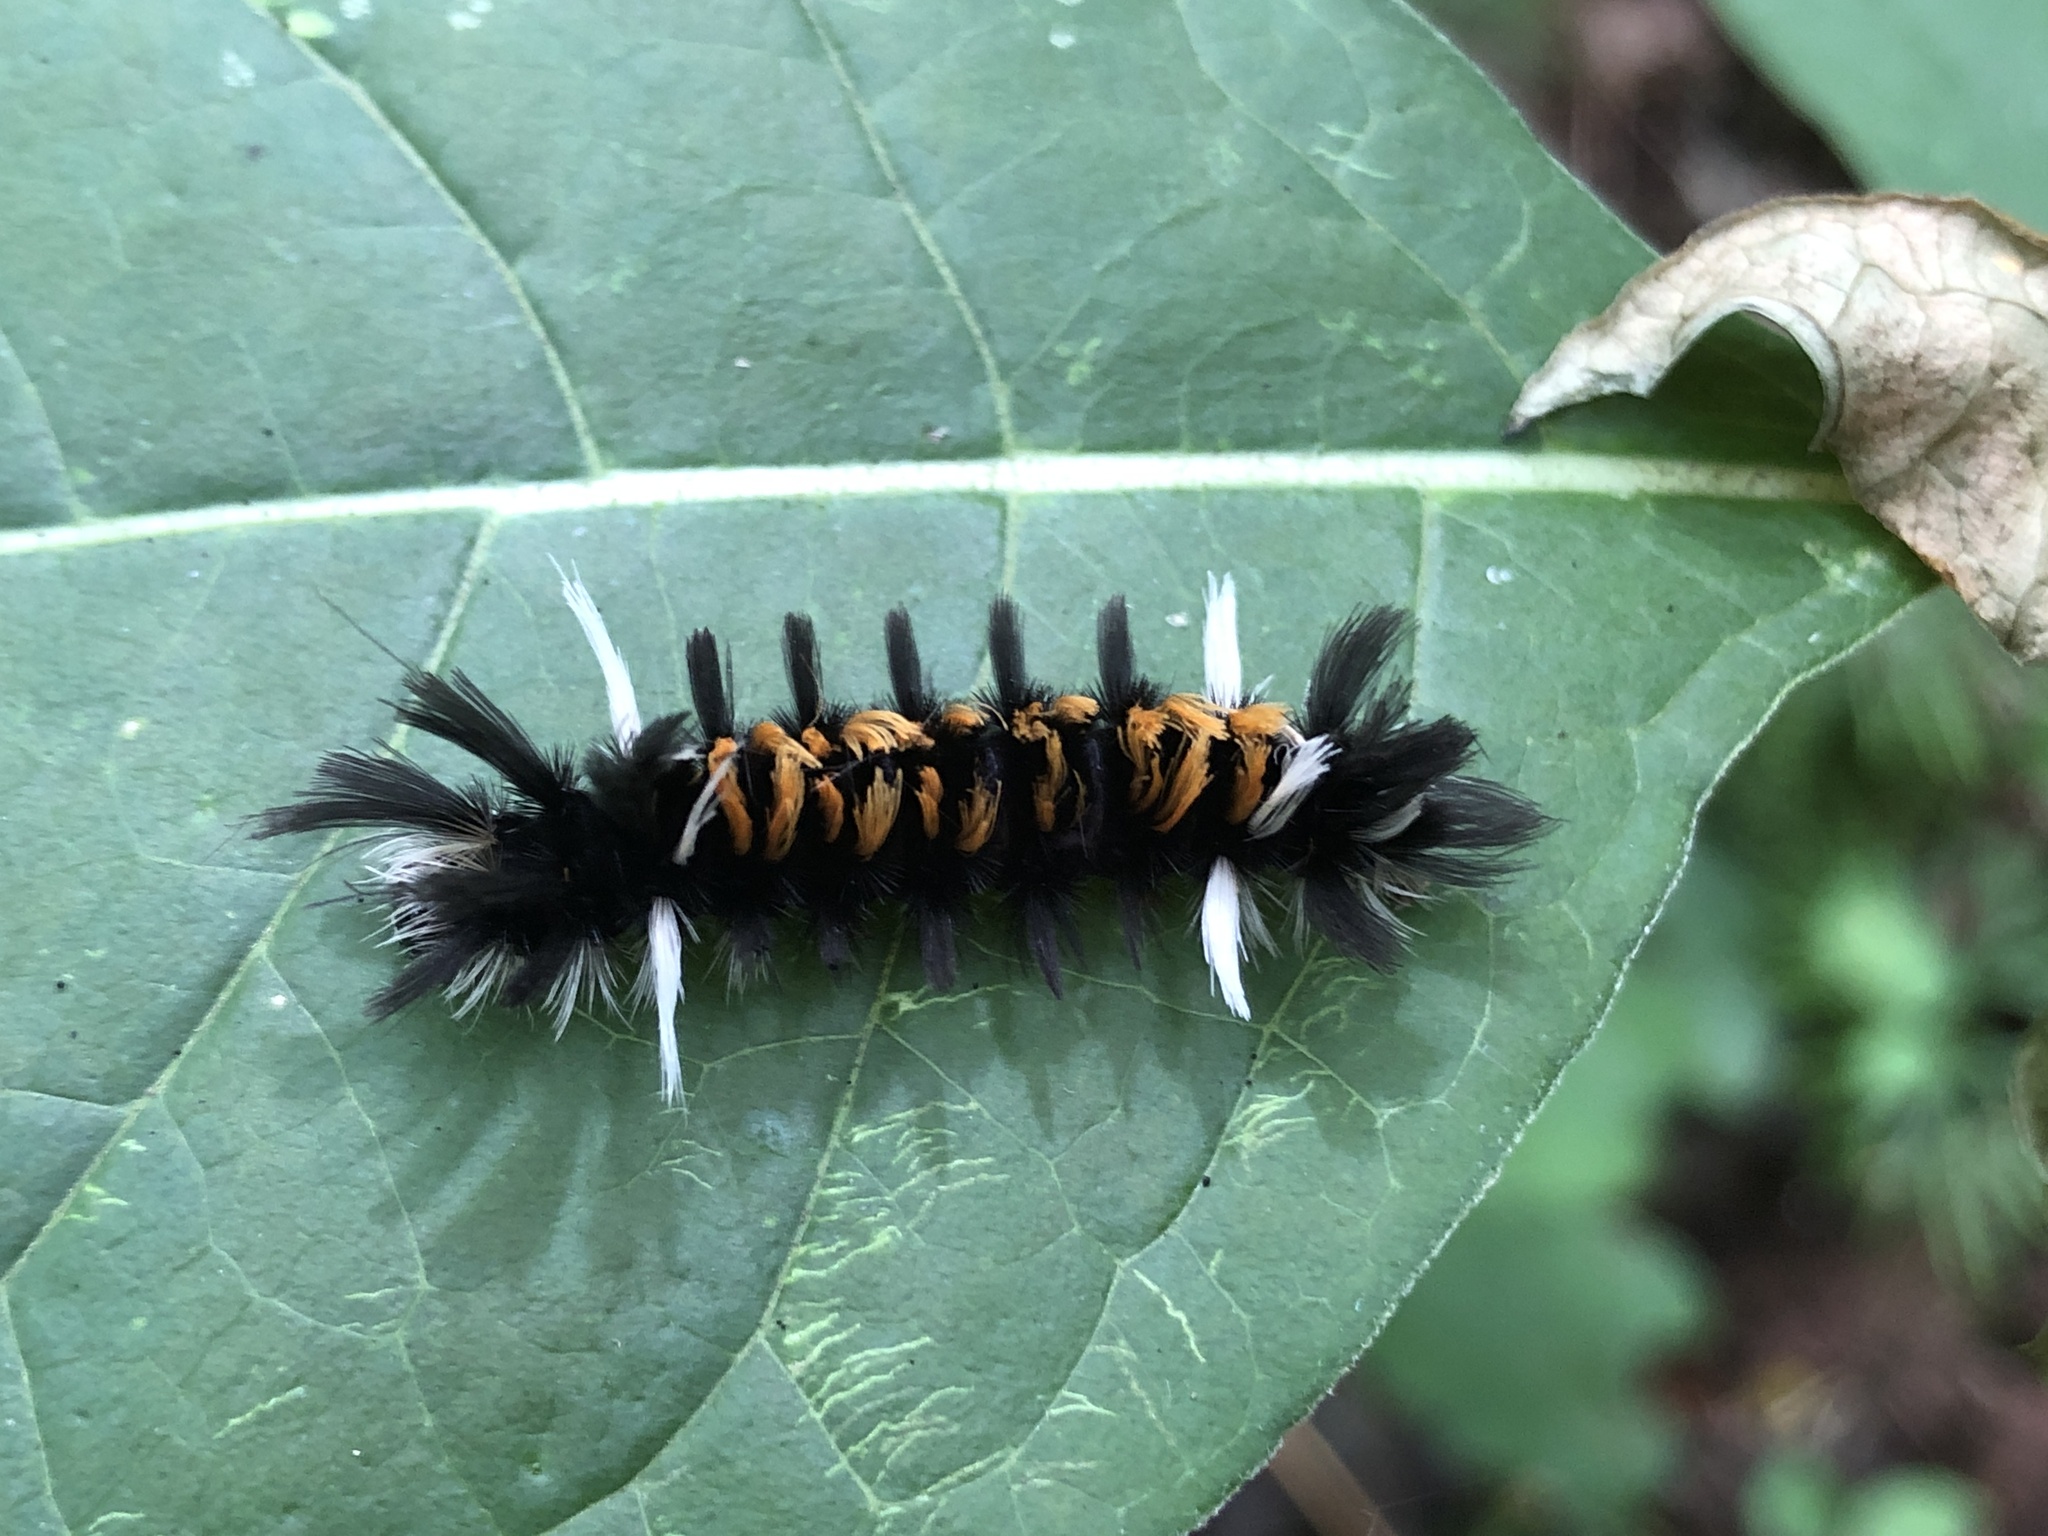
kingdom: Animalia
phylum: Arthropoda
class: Insecta
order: Lepidoptera
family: Erebidae
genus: Euchaetes
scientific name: Euchaetes egle
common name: Milkweed tussock moth
